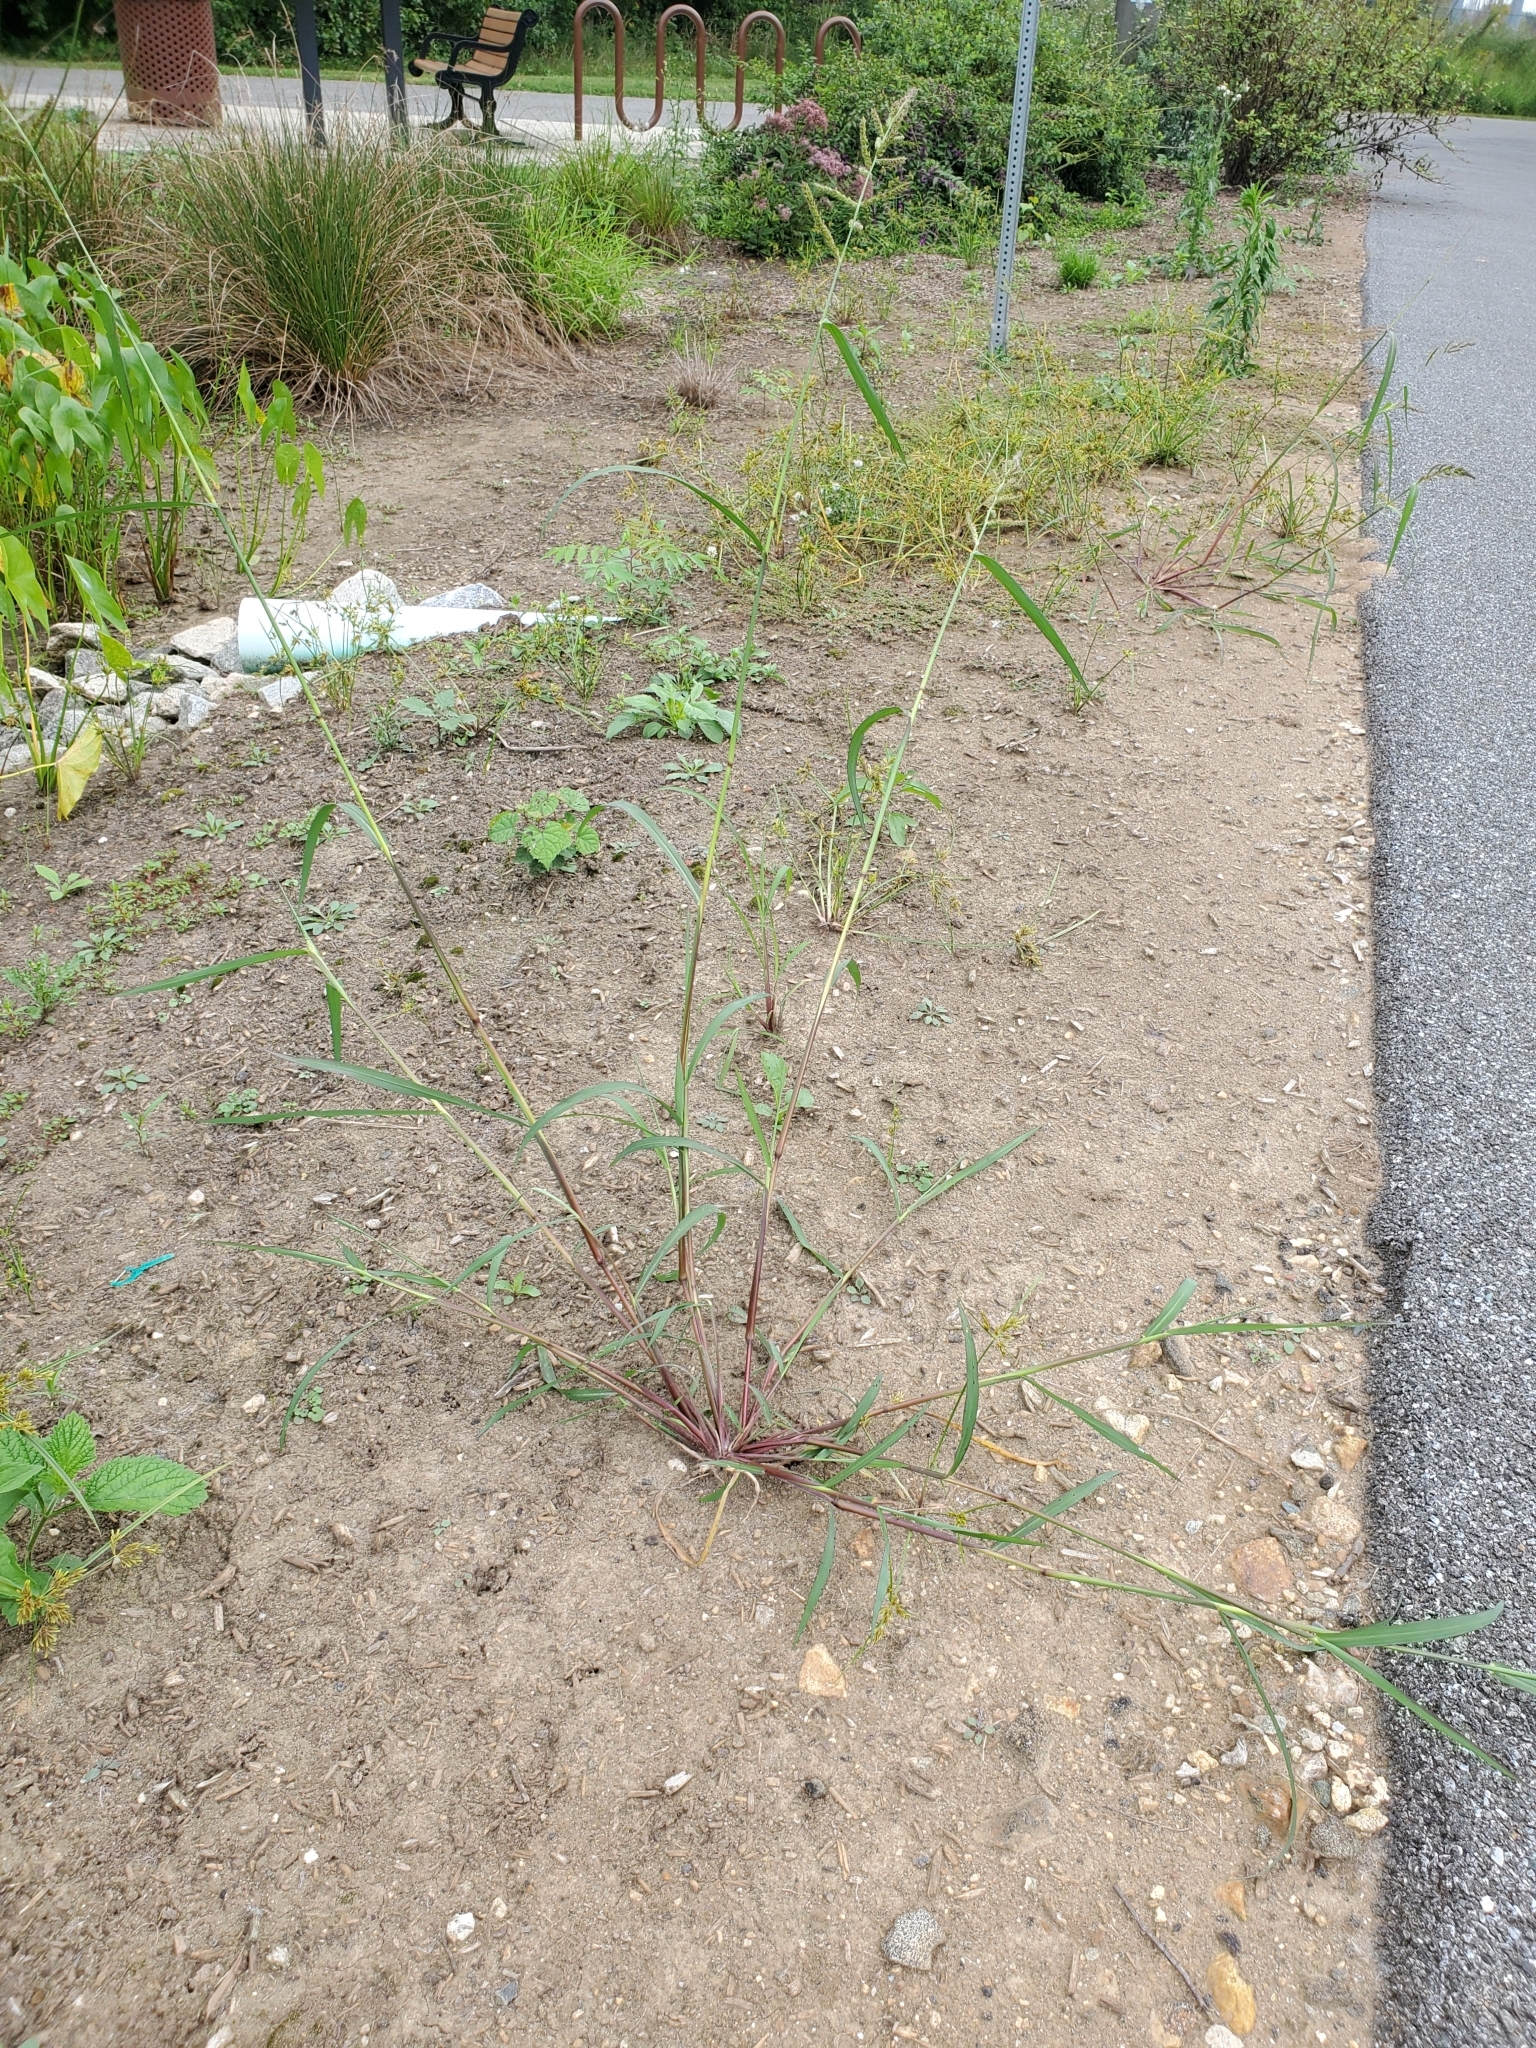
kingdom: Plantae
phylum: Tracheophyta
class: Liliopsida
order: Poales
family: Poaceae
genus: Echinochloa
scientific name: Echinochloa crus-galli
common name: Cockspur
